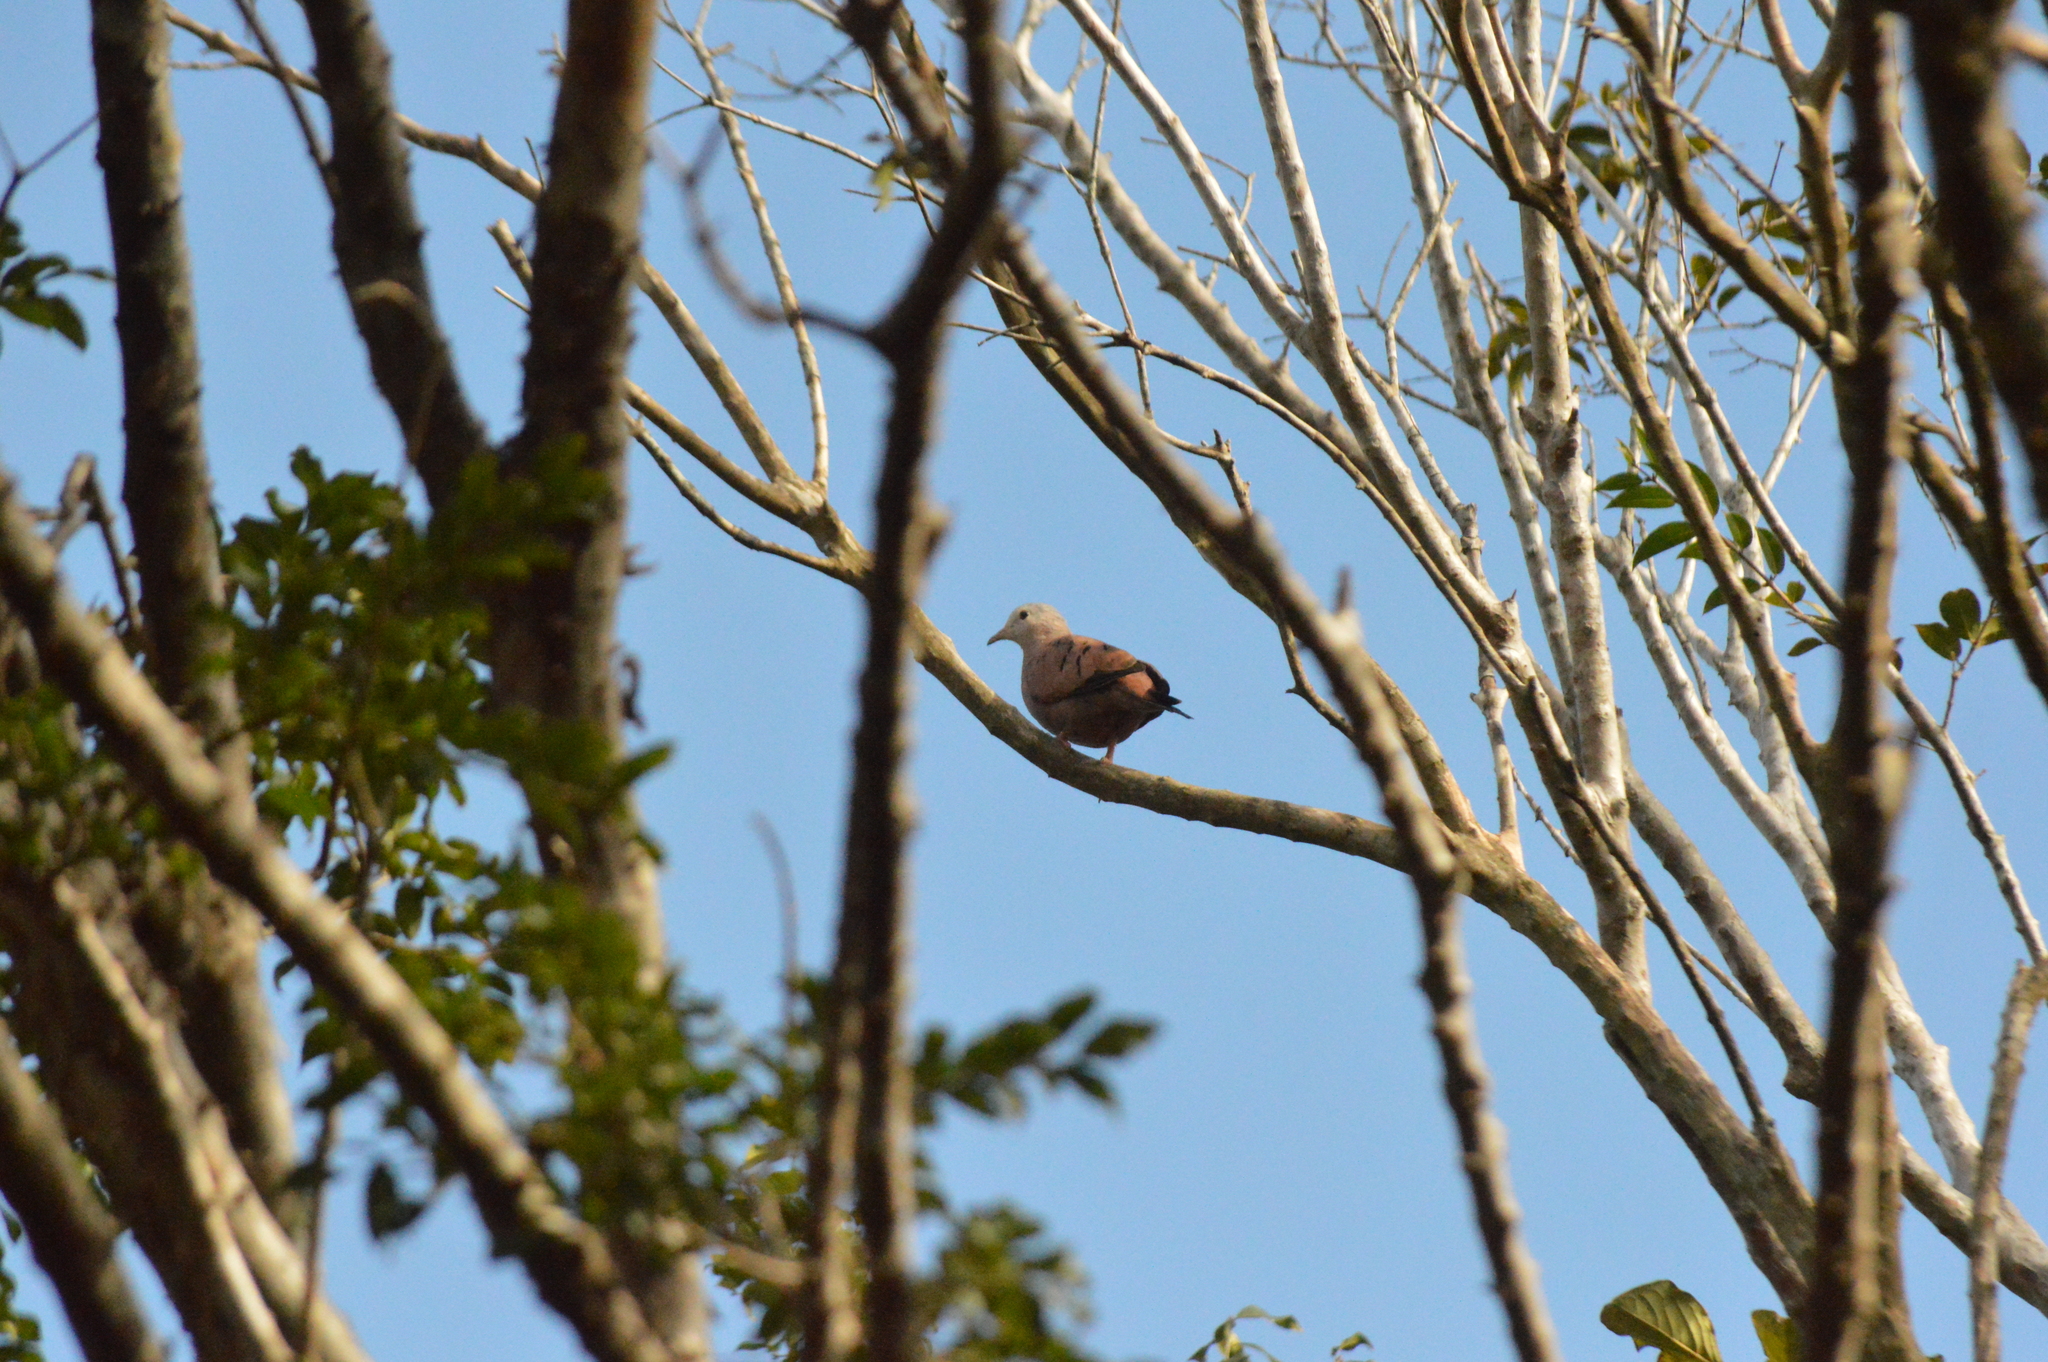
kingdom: Animalia
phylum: Chordata
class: Aves
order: Columbiformes
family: Columbidae
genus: Columbina
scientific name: Columbina talpacoti
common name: Ruddy ground dove
